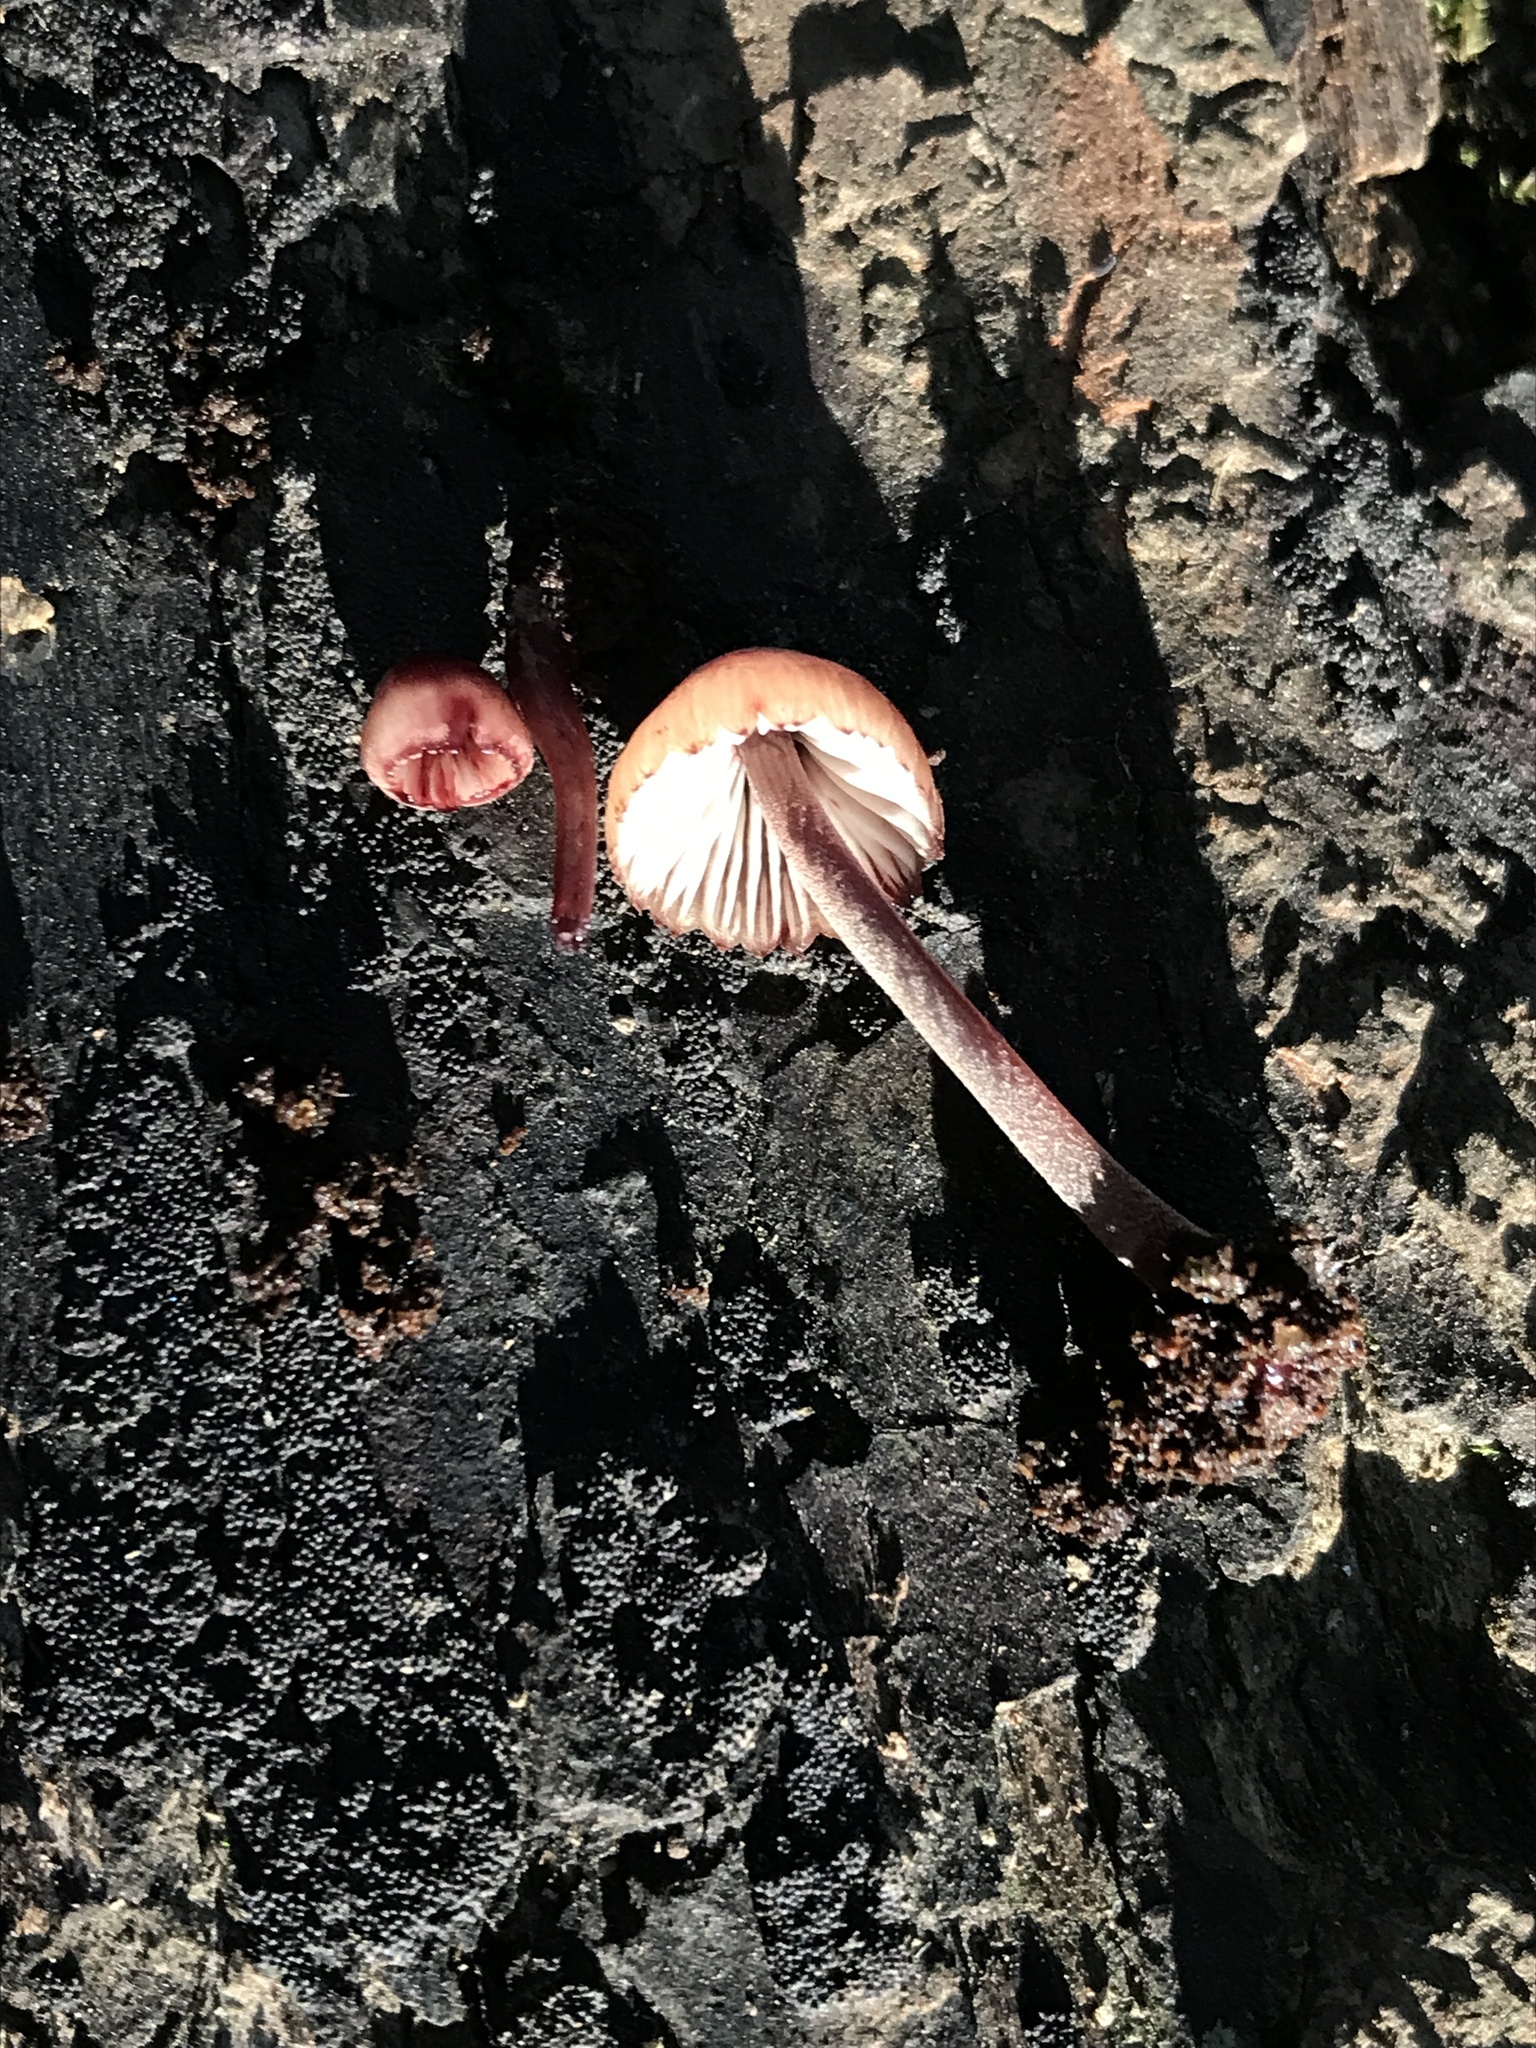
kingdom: Fungi
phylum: Basidiomycota
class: Agaricomycetes
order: Agaricales
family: Mycenaceae
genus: Mycena
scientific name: Mycena haematopus
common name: Burgundydrop bonnet
